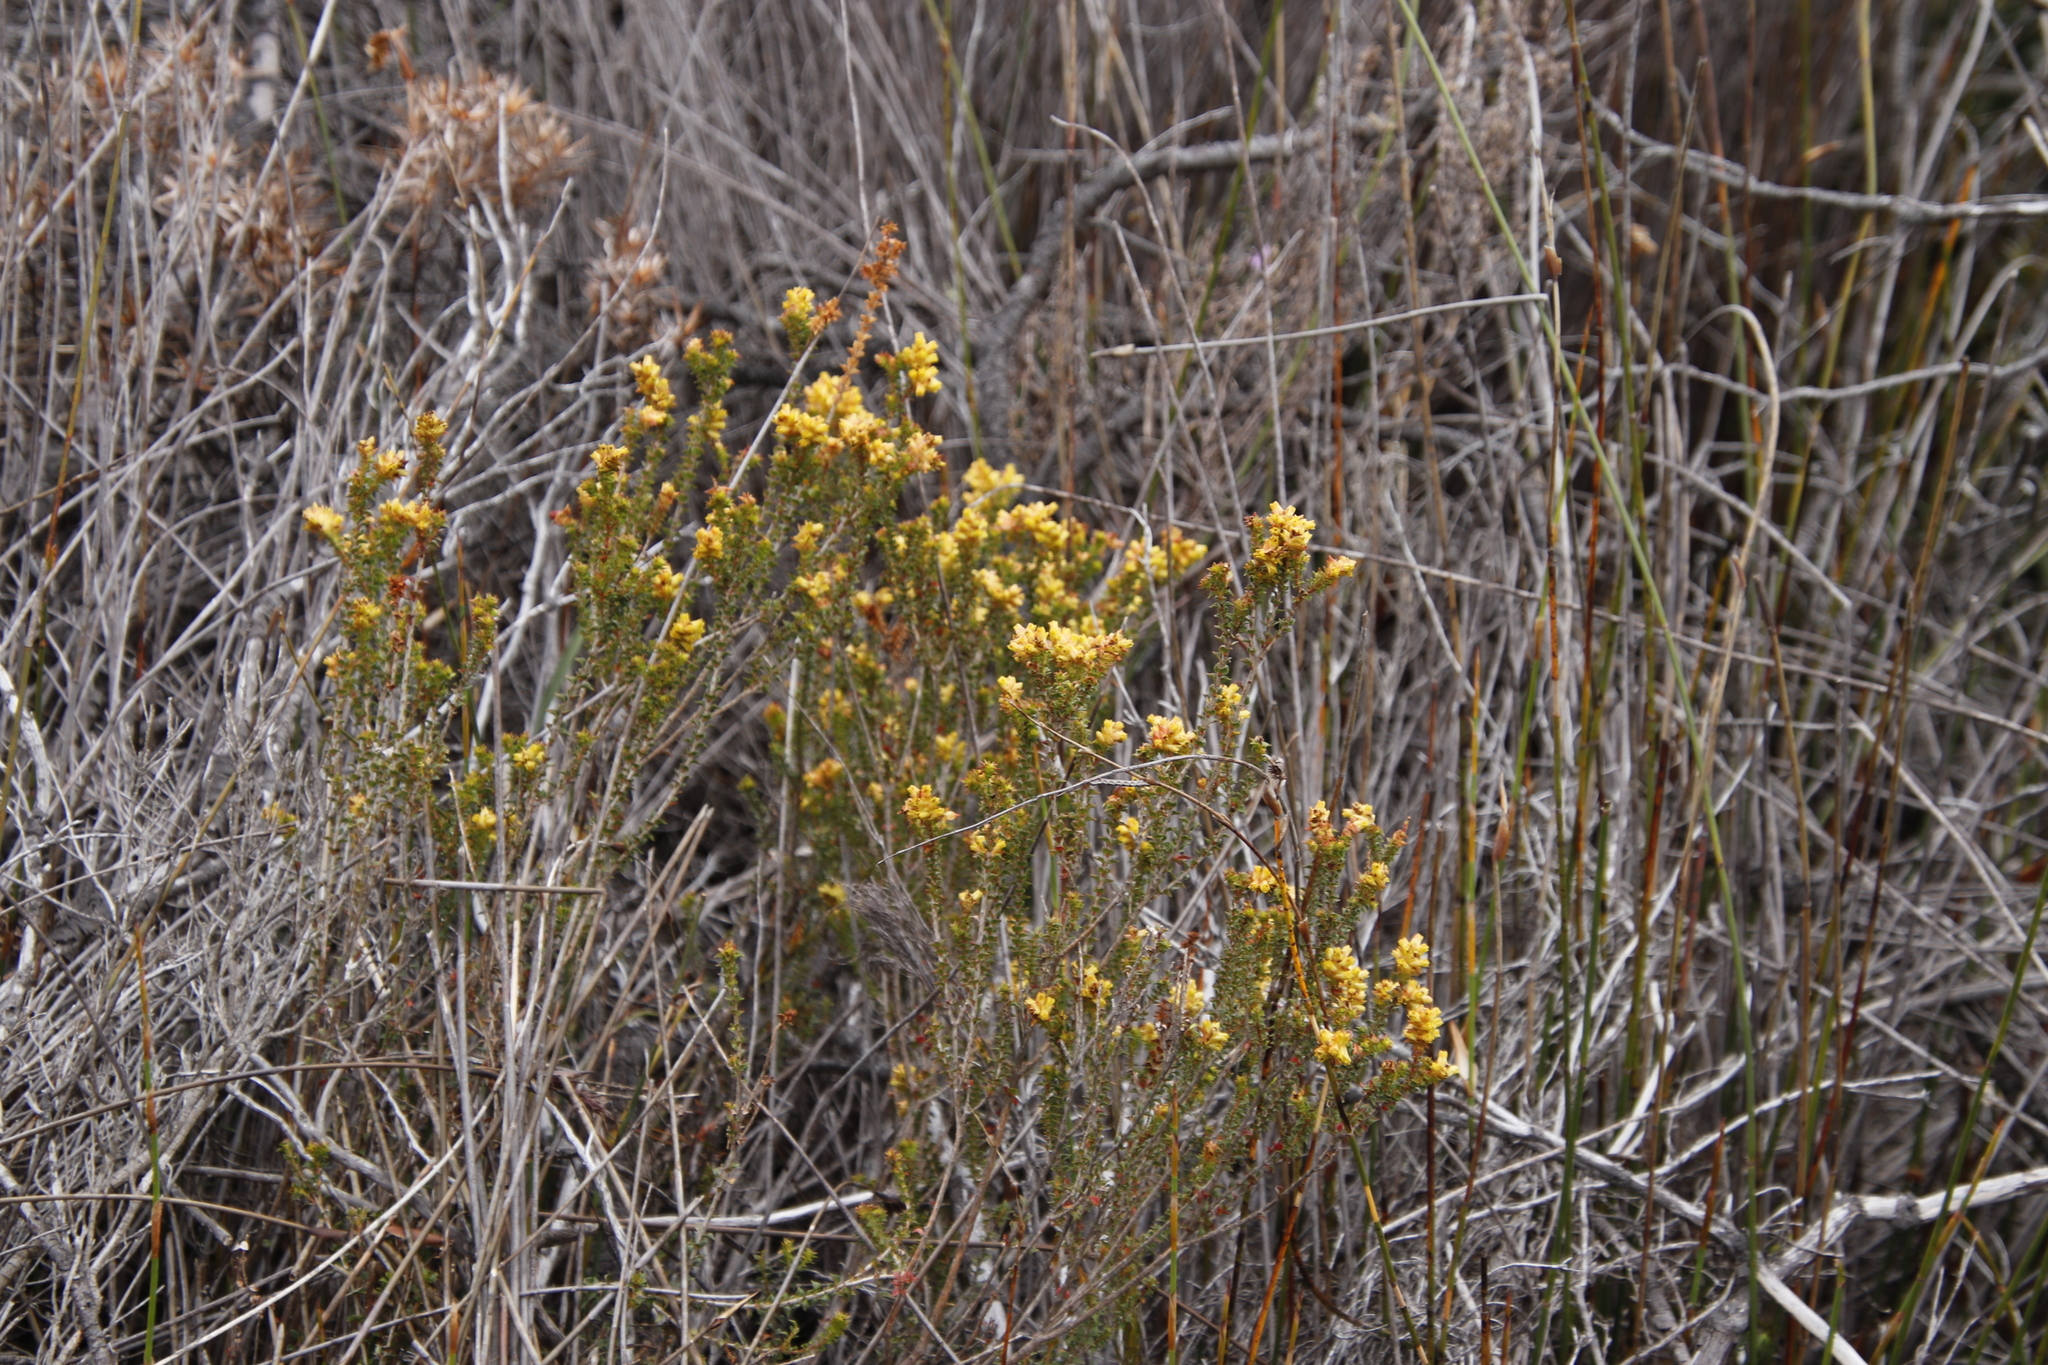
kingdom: Plantae
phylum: Tracheophyta
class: Magnoliopsida
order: Myrtales
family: Penaeaceae
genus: Penaea
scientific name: Penaea mucronata
